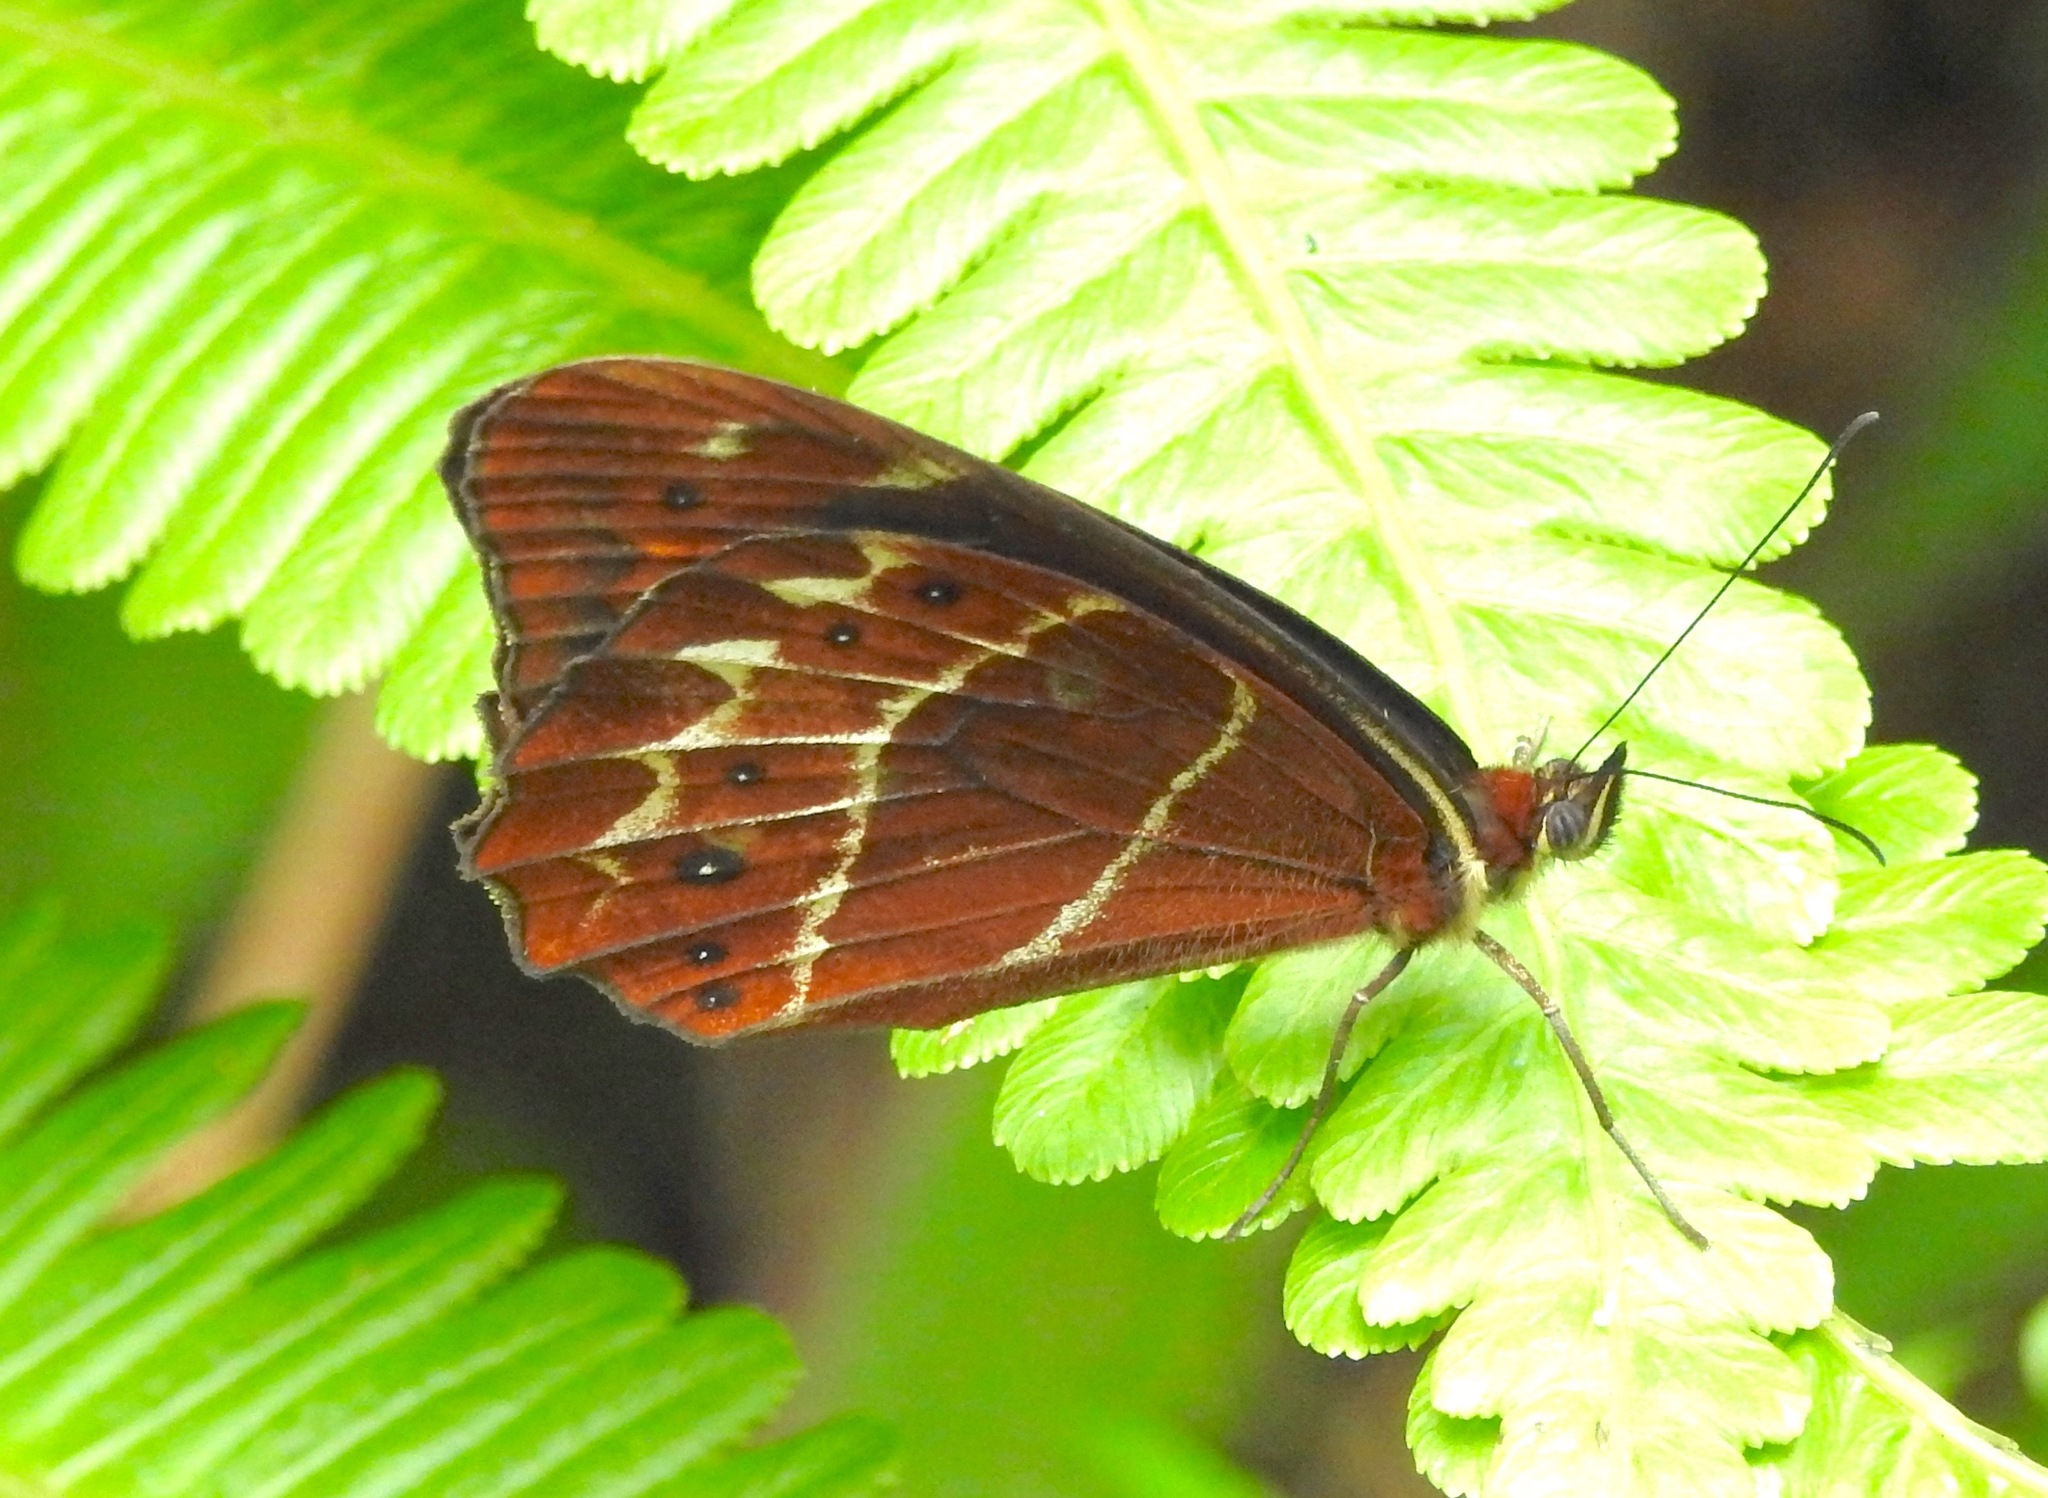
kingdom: Animalia
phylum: Arthropoda
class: Insecta
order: Lepidoptera
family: Nymphalidae
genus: Oxeoschistus
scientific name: Oxeoschistus simplex
